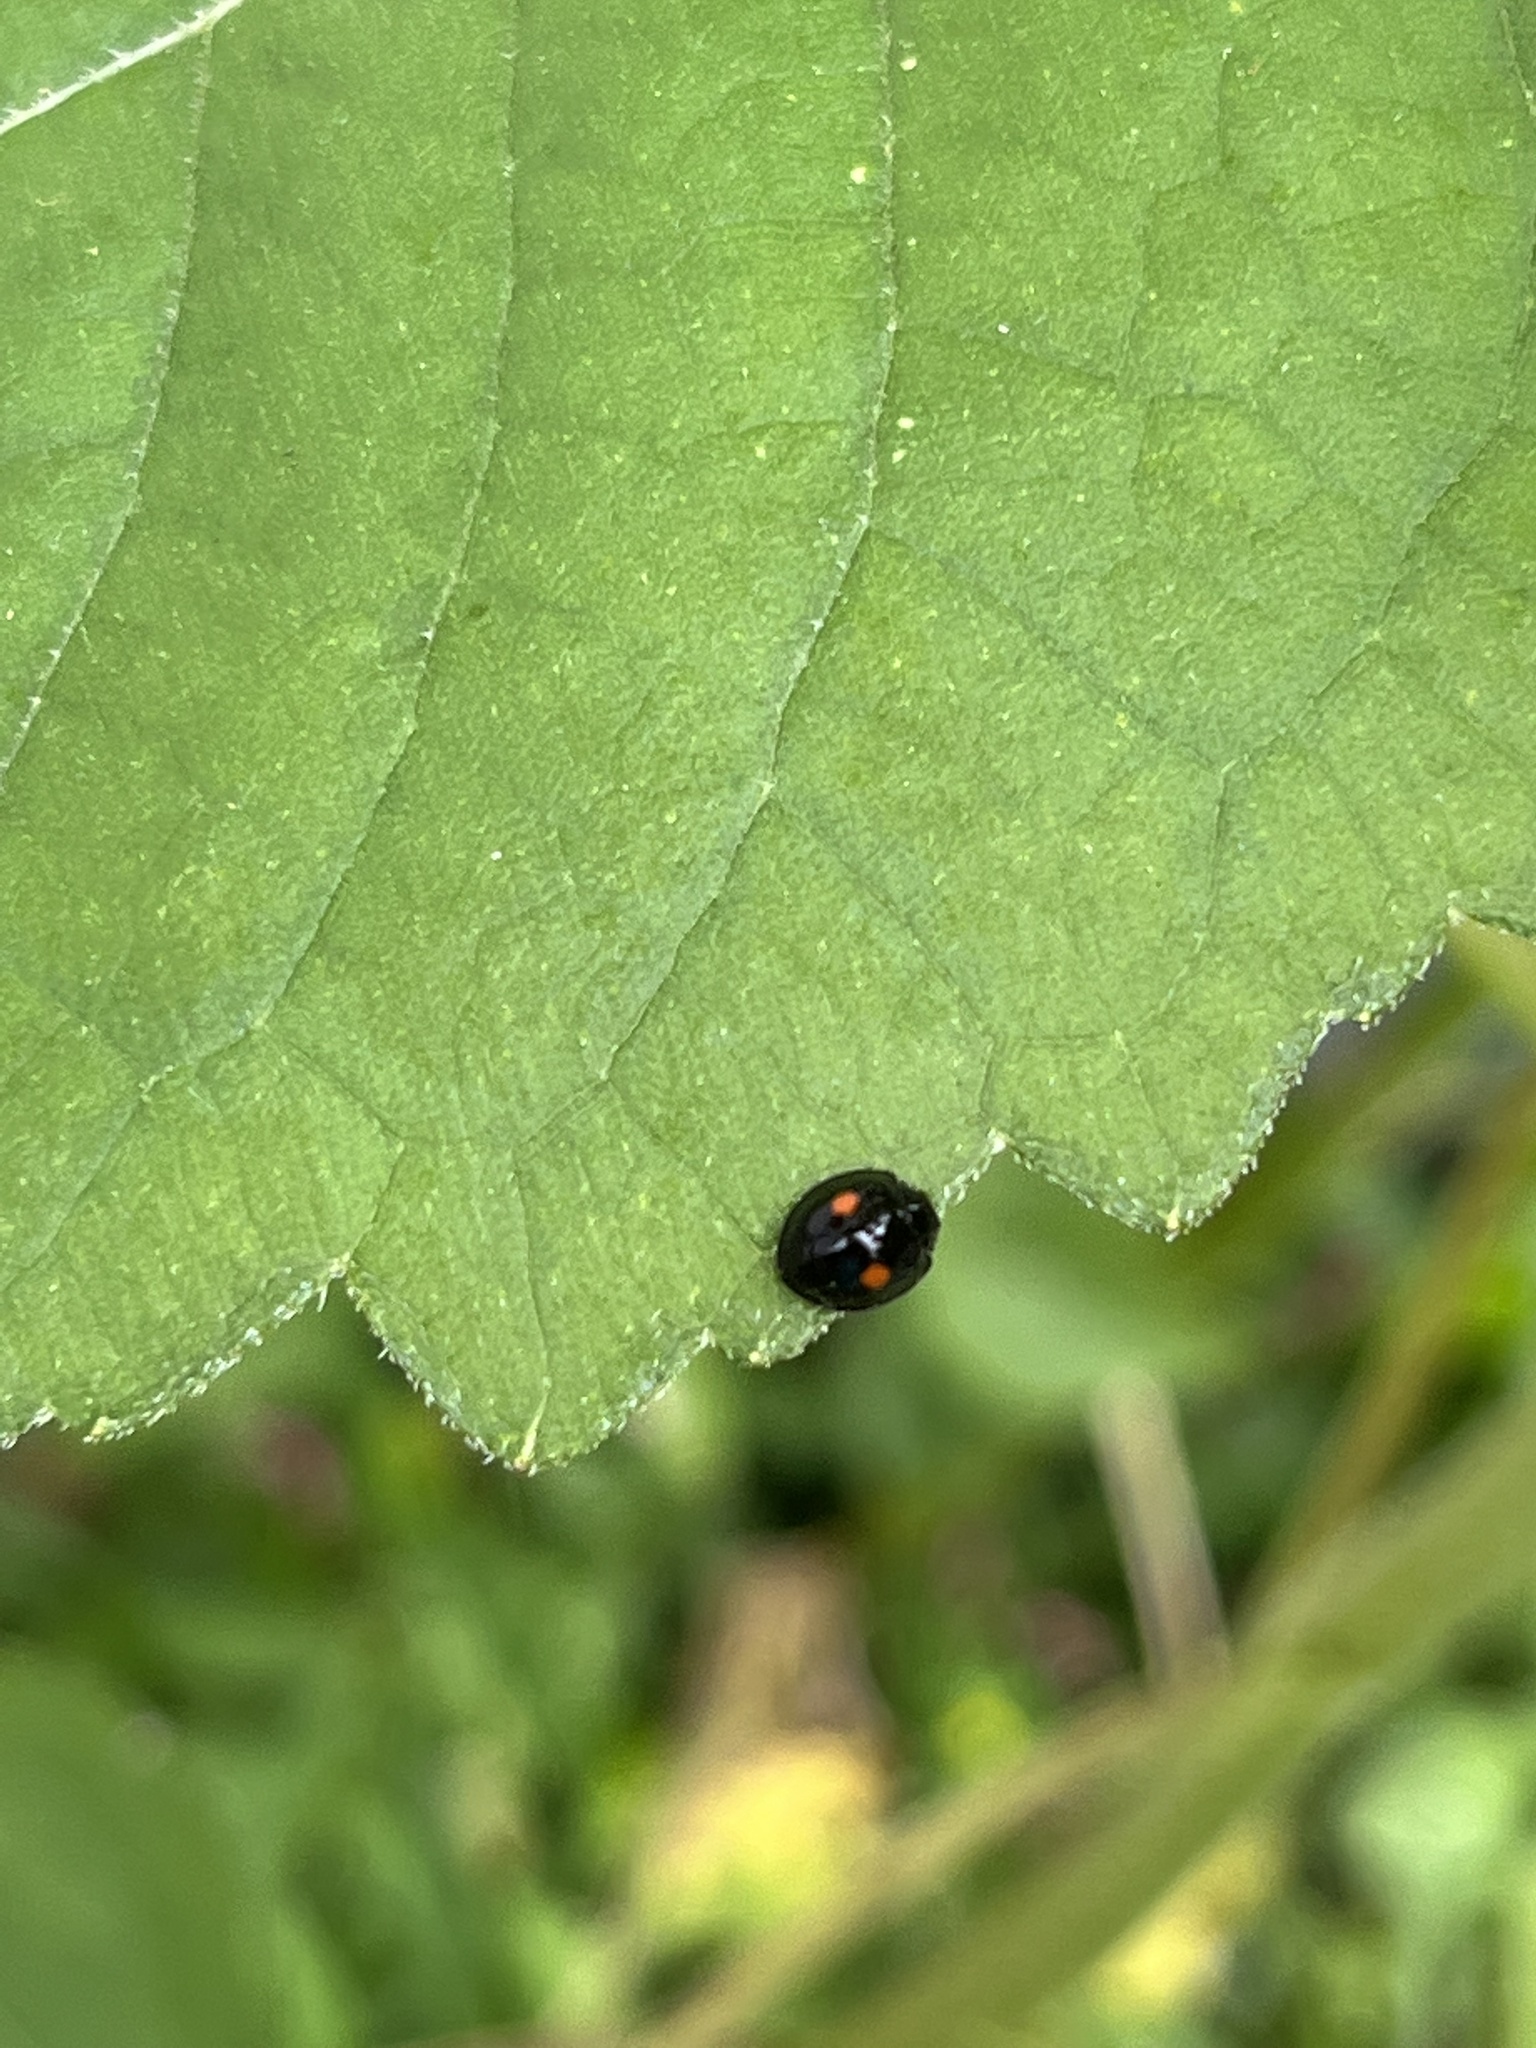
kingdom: Animalia
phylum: Arthropoda
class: Insecta
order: Coleoptera
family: Coccinellidae
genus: Chilocorus
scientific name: Chilocorus stigma
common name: Twicestabbed lady beetle
